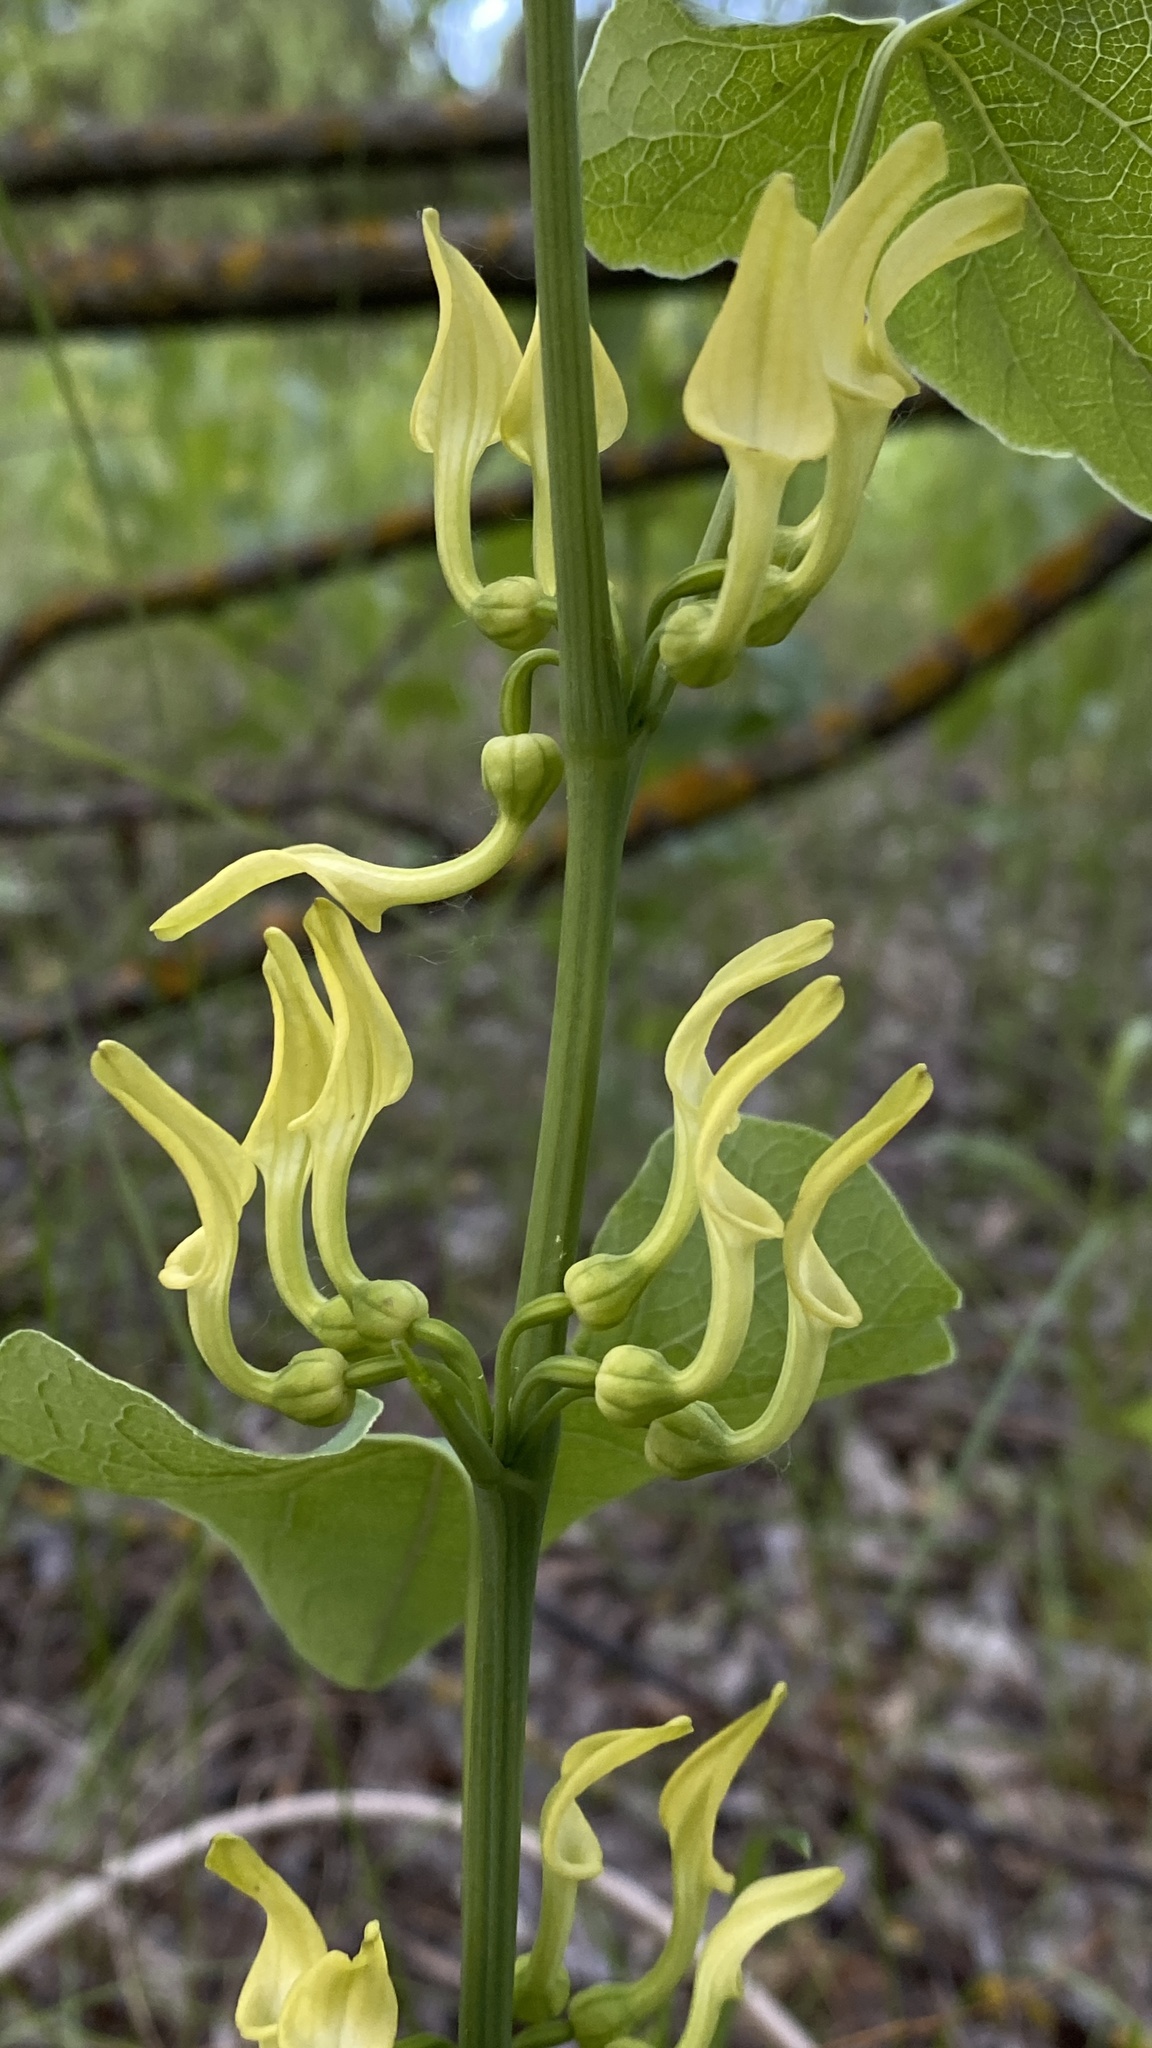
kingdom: Plantae
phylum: Tracheophyta
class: Magnoliopsida
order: Piperales
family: Aristolochiaceae
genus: Aristolochia
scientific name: Aristolochia clematitis
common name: Birthwort
